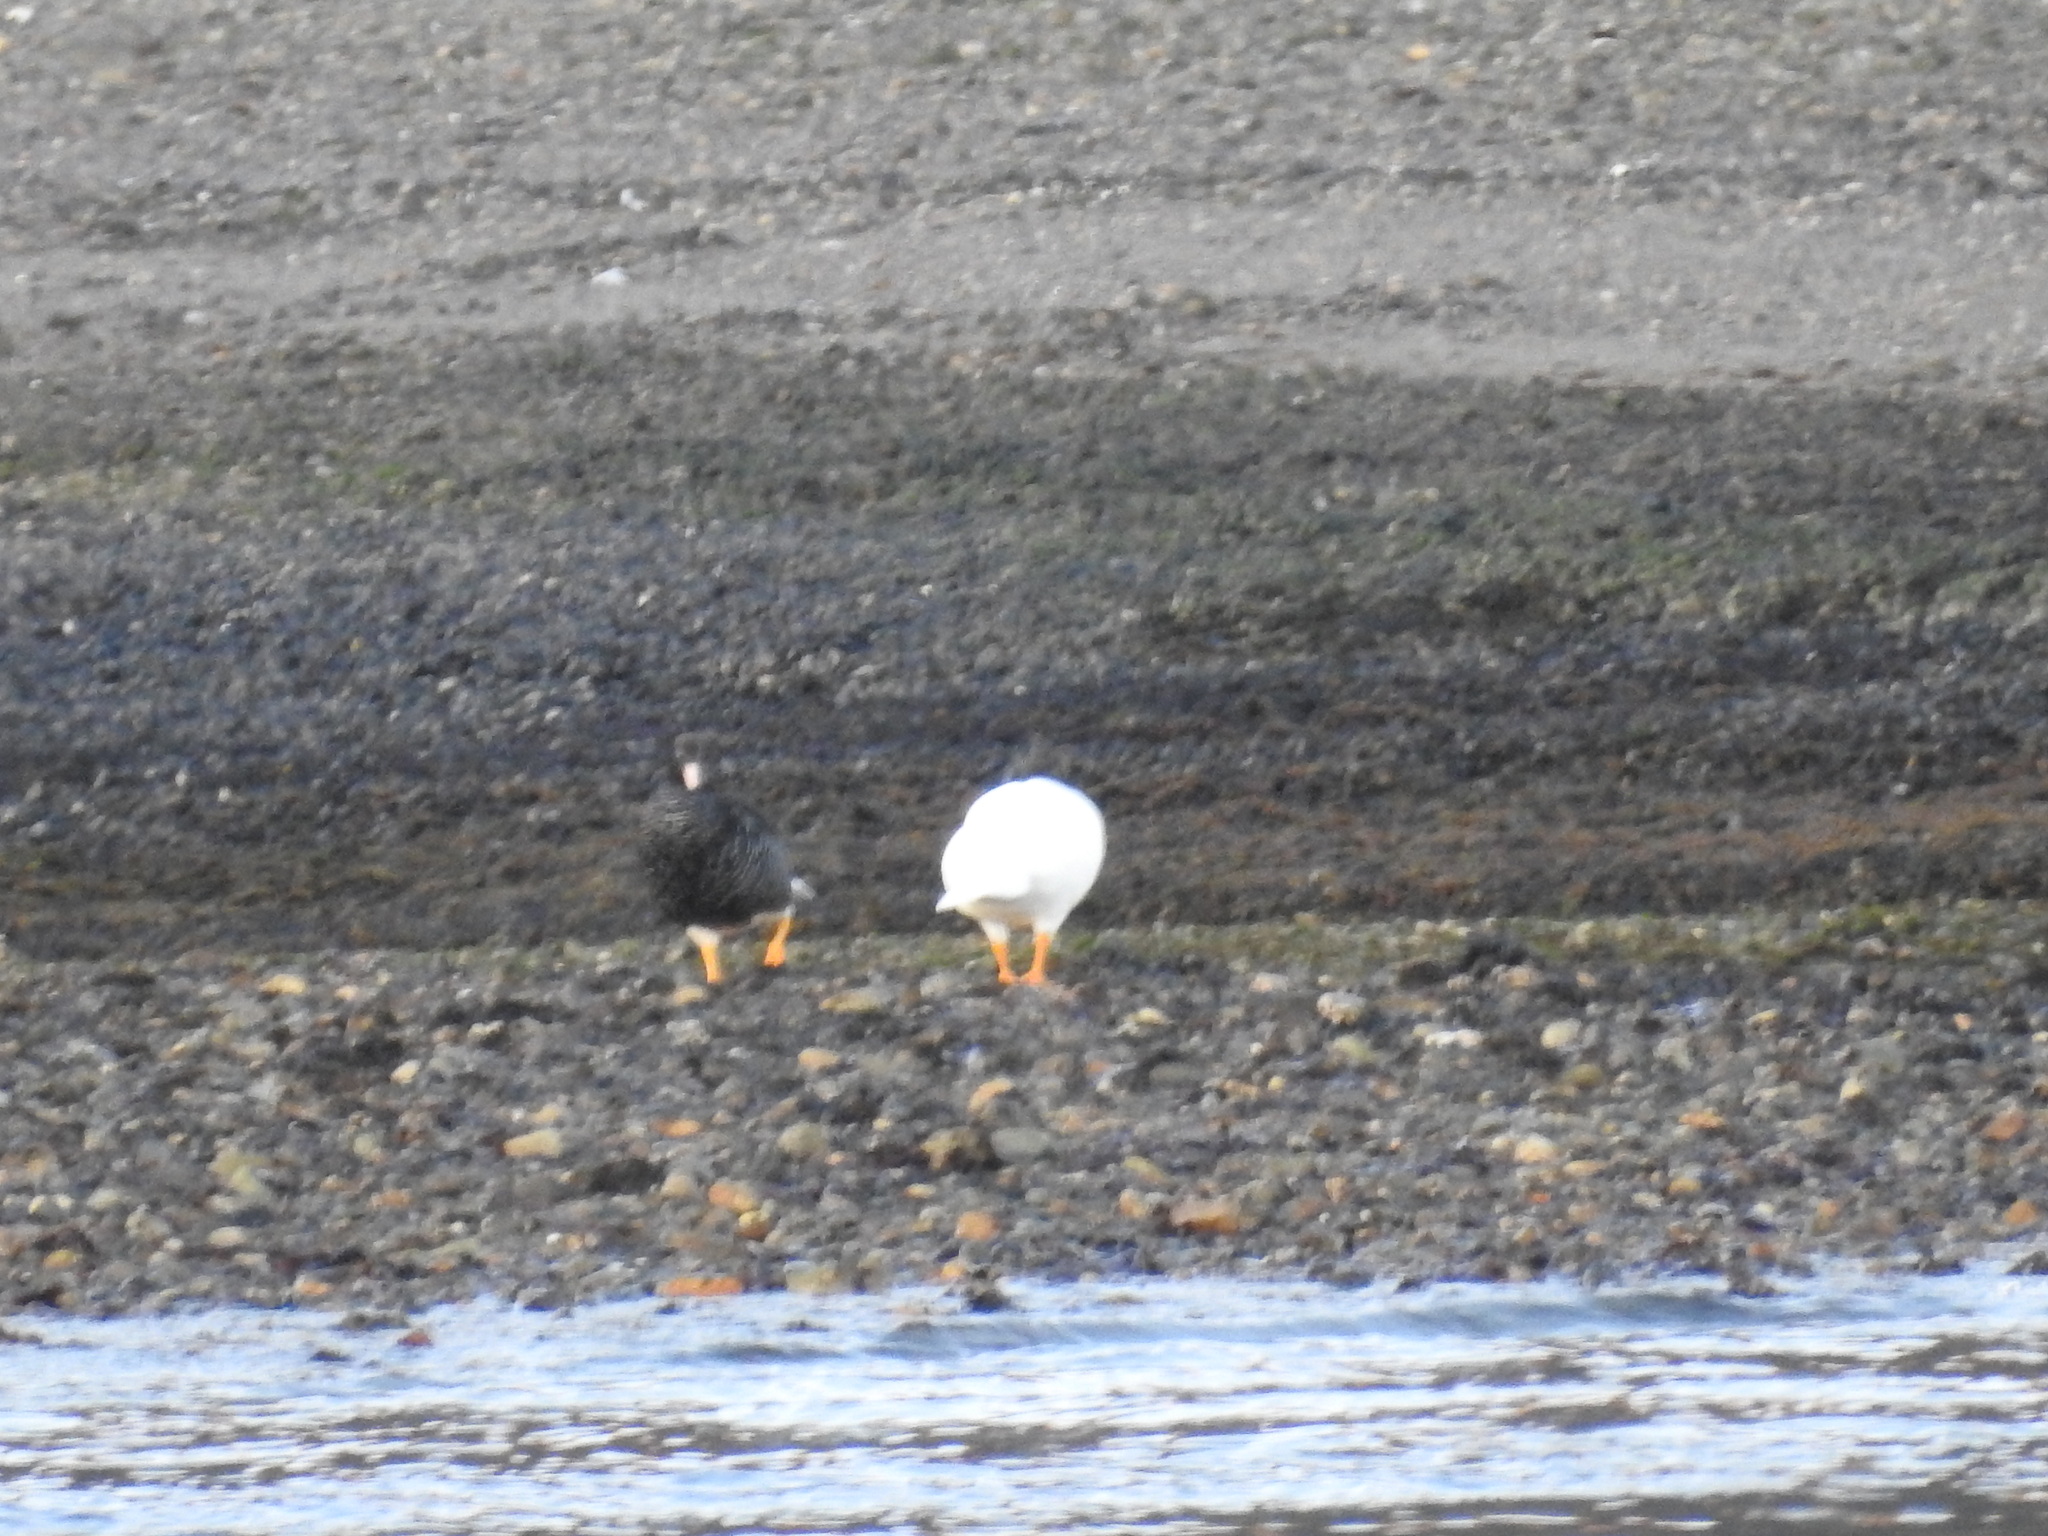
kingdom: Animalia
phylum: Chordata
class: Aves
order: Anseriformes
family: Anatidae
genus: Chloephaga
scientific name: Chloephaga hybrida
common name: Kelp goose
